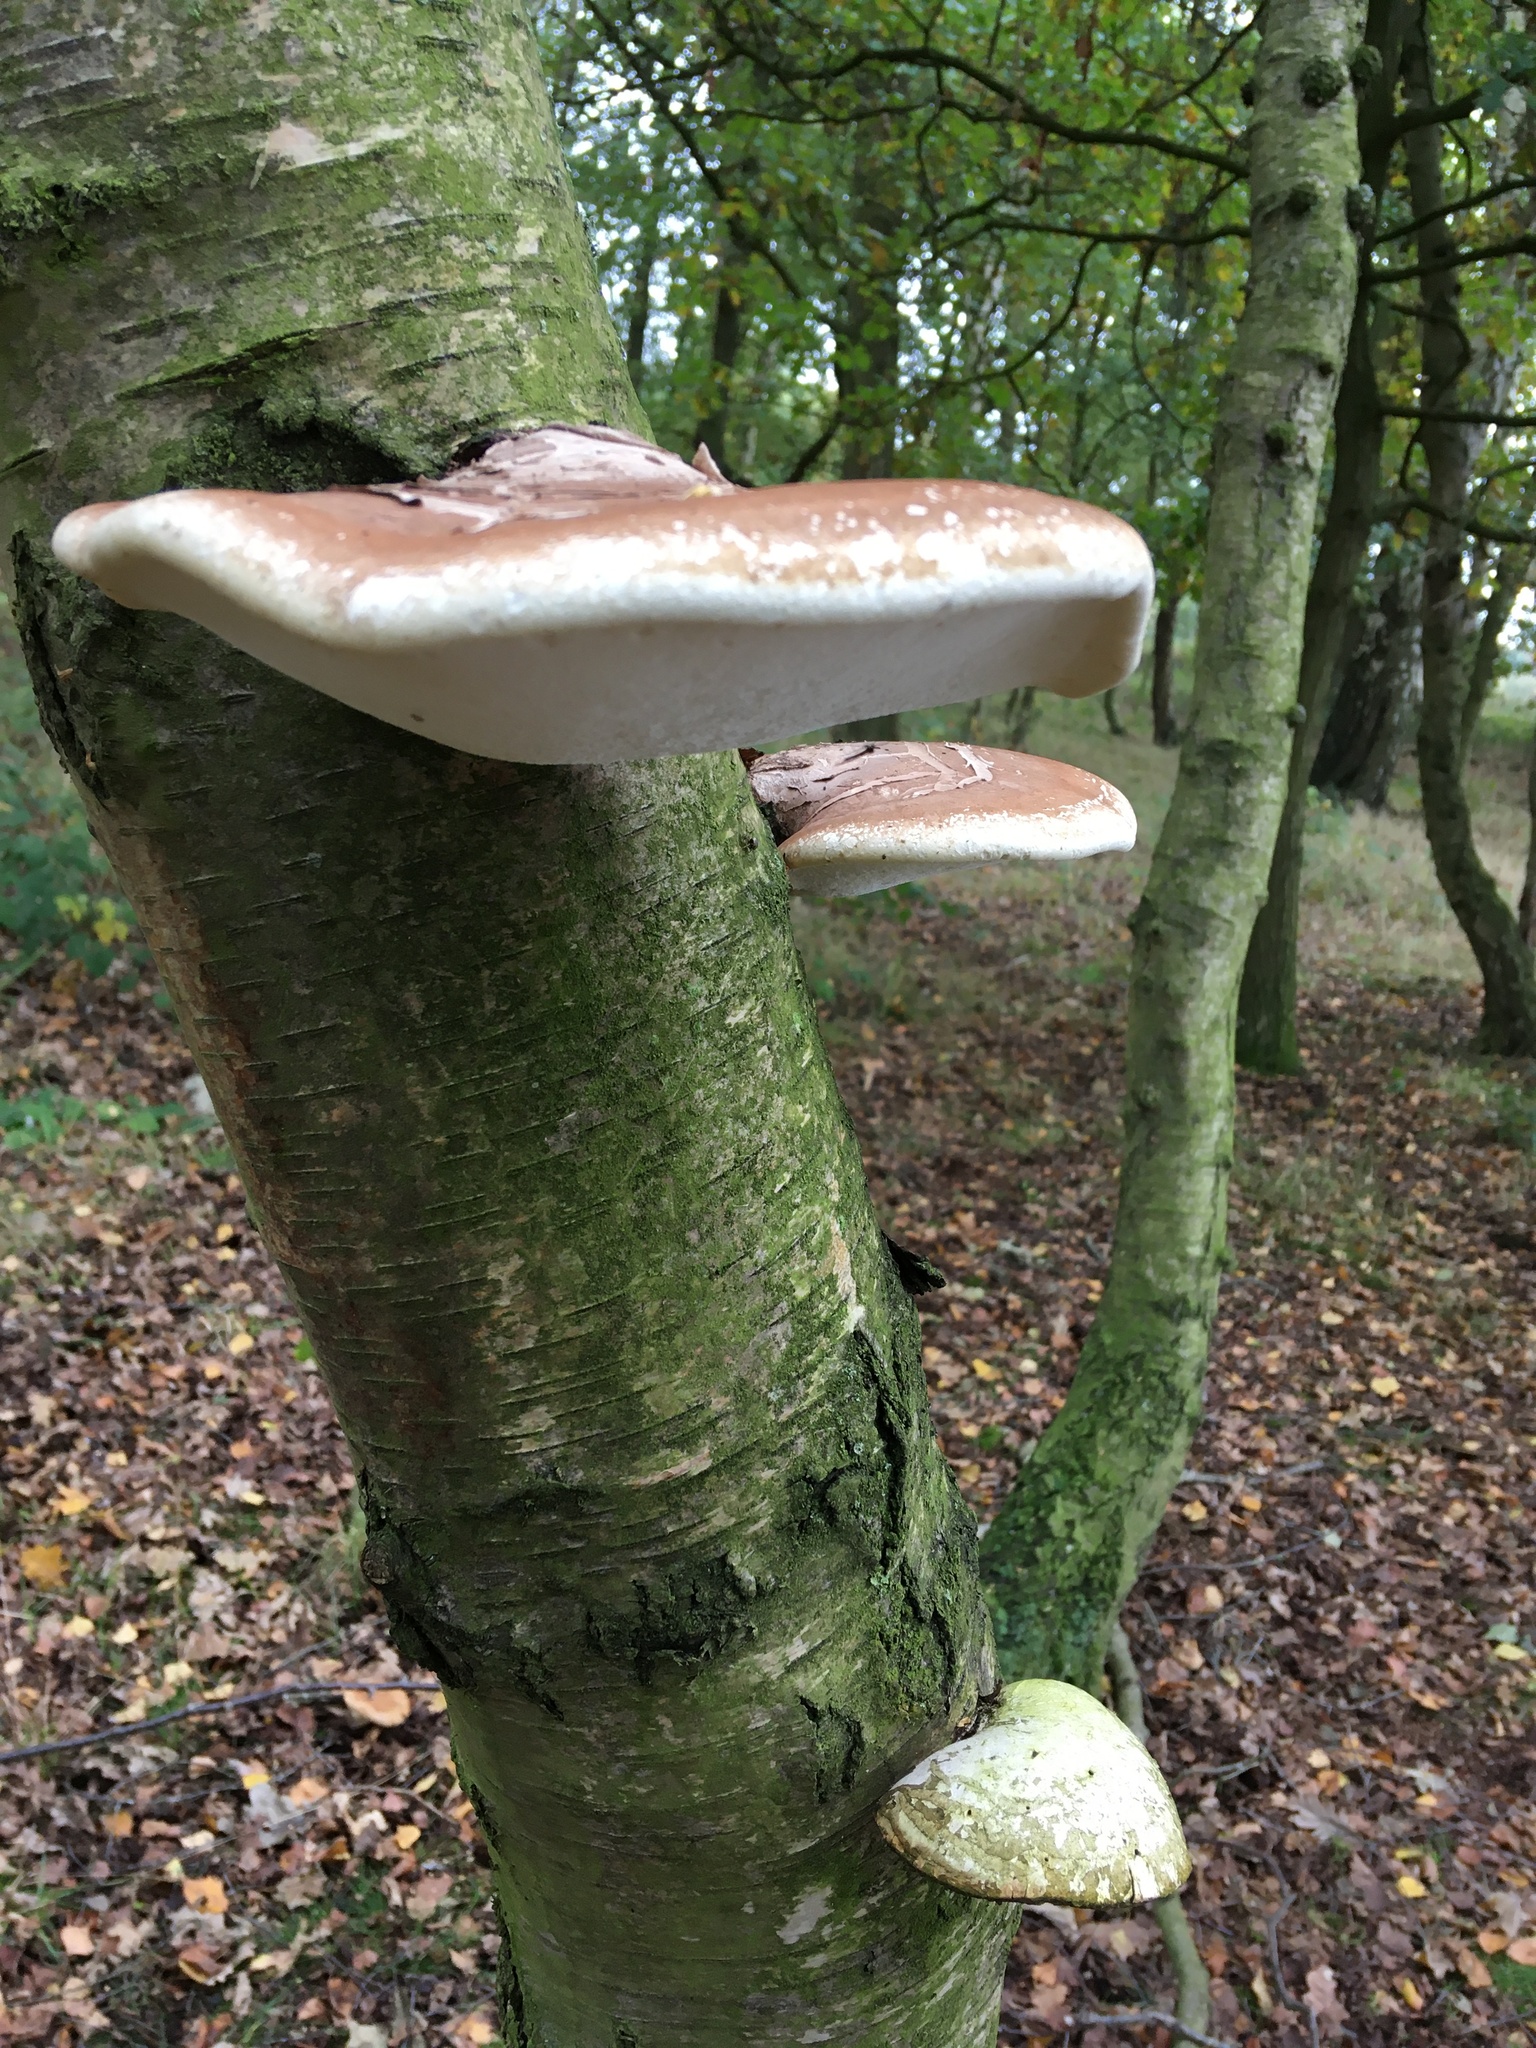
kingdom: Fungi
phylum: Basidiomycota
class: Agaricomycetes
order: Polyporales
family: Fomitopsidaceae
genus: Fomitopsis
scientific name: Fomitopsis betulina
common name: Birch polypore
